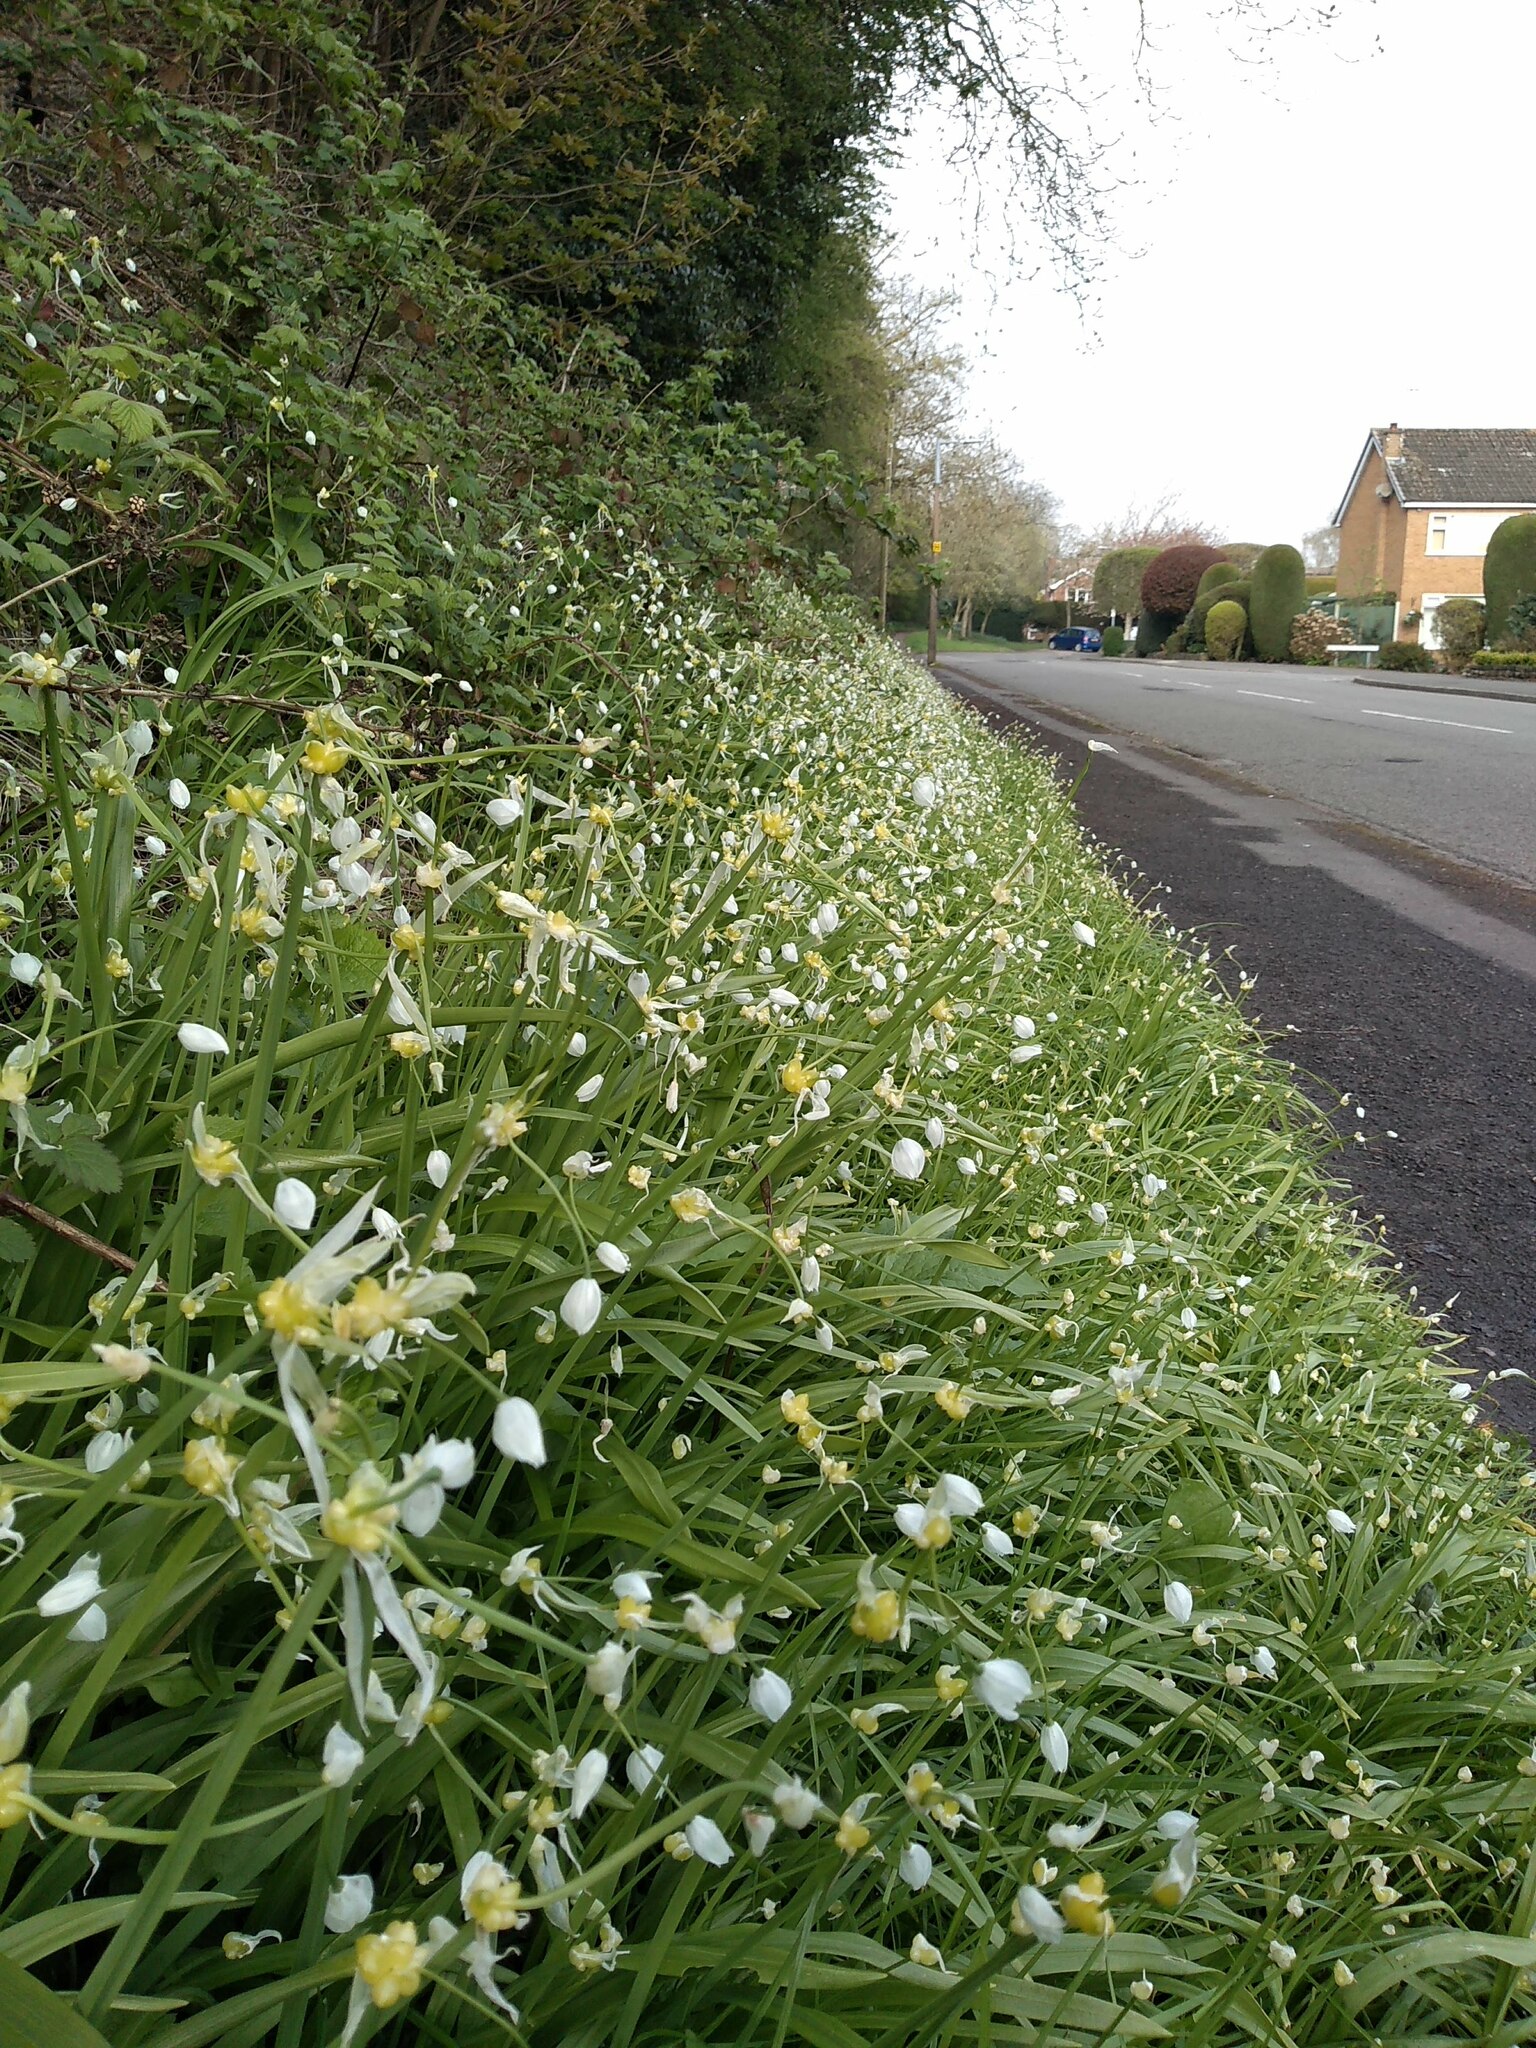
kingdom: Plantae
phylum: Tracheophyta
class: Liliopsida
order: Asparagales
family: Amaryllidaceae
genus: Allium
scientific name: Allium paradoxum
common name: Few-flowered garlic
